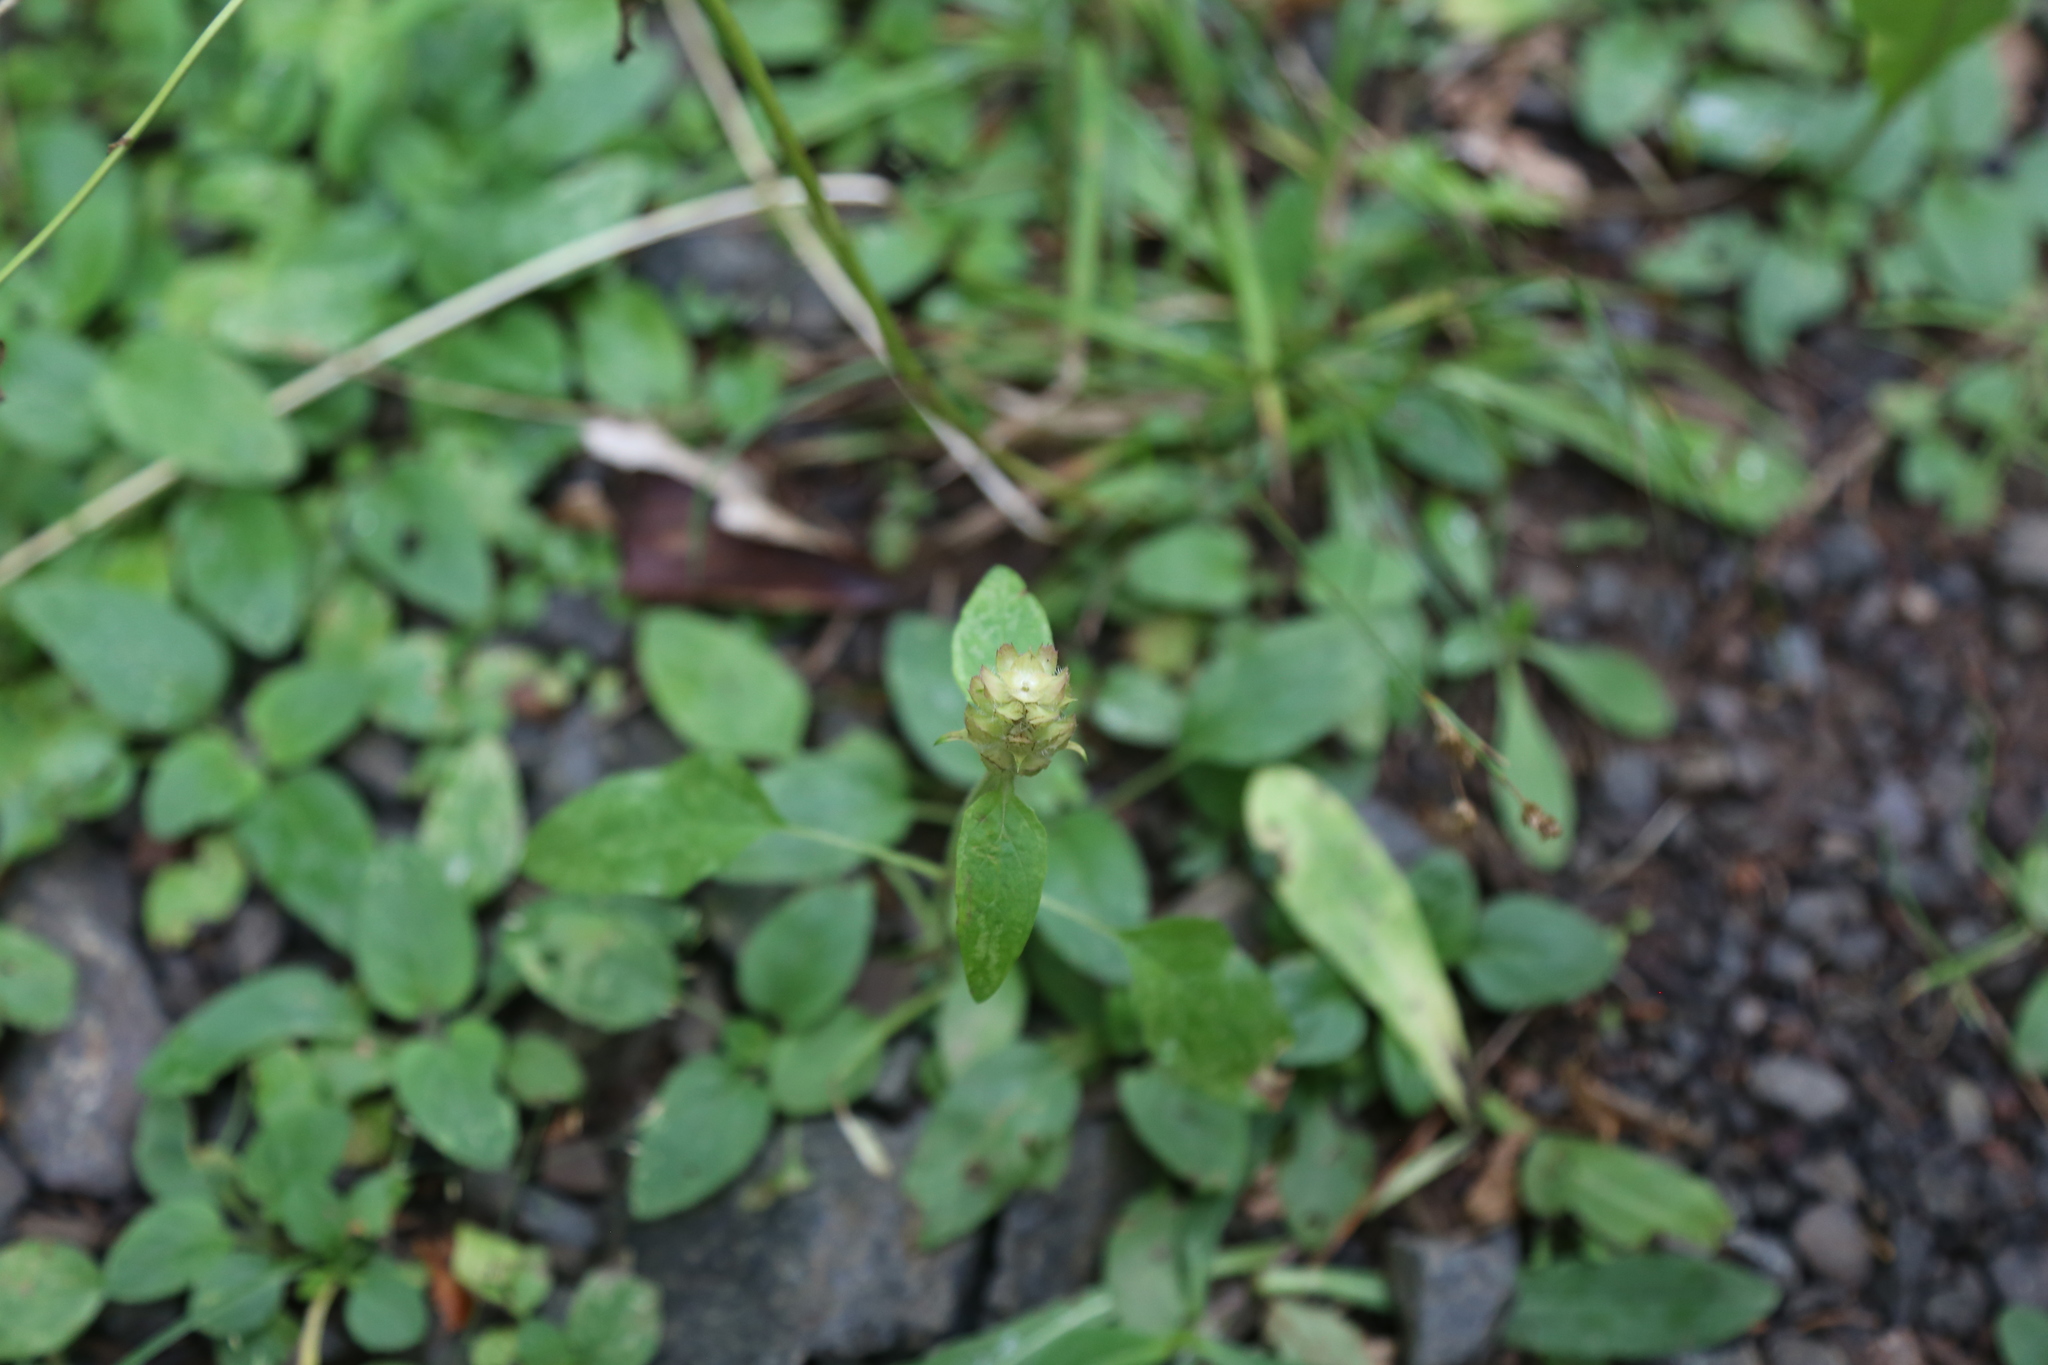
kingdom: Plantae
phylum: Tracheophyta
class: Magnoliopsida
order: Lamiales
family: Lamiaceae
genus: Prunella
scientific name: Prunella vulgaris
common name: Heal-all
